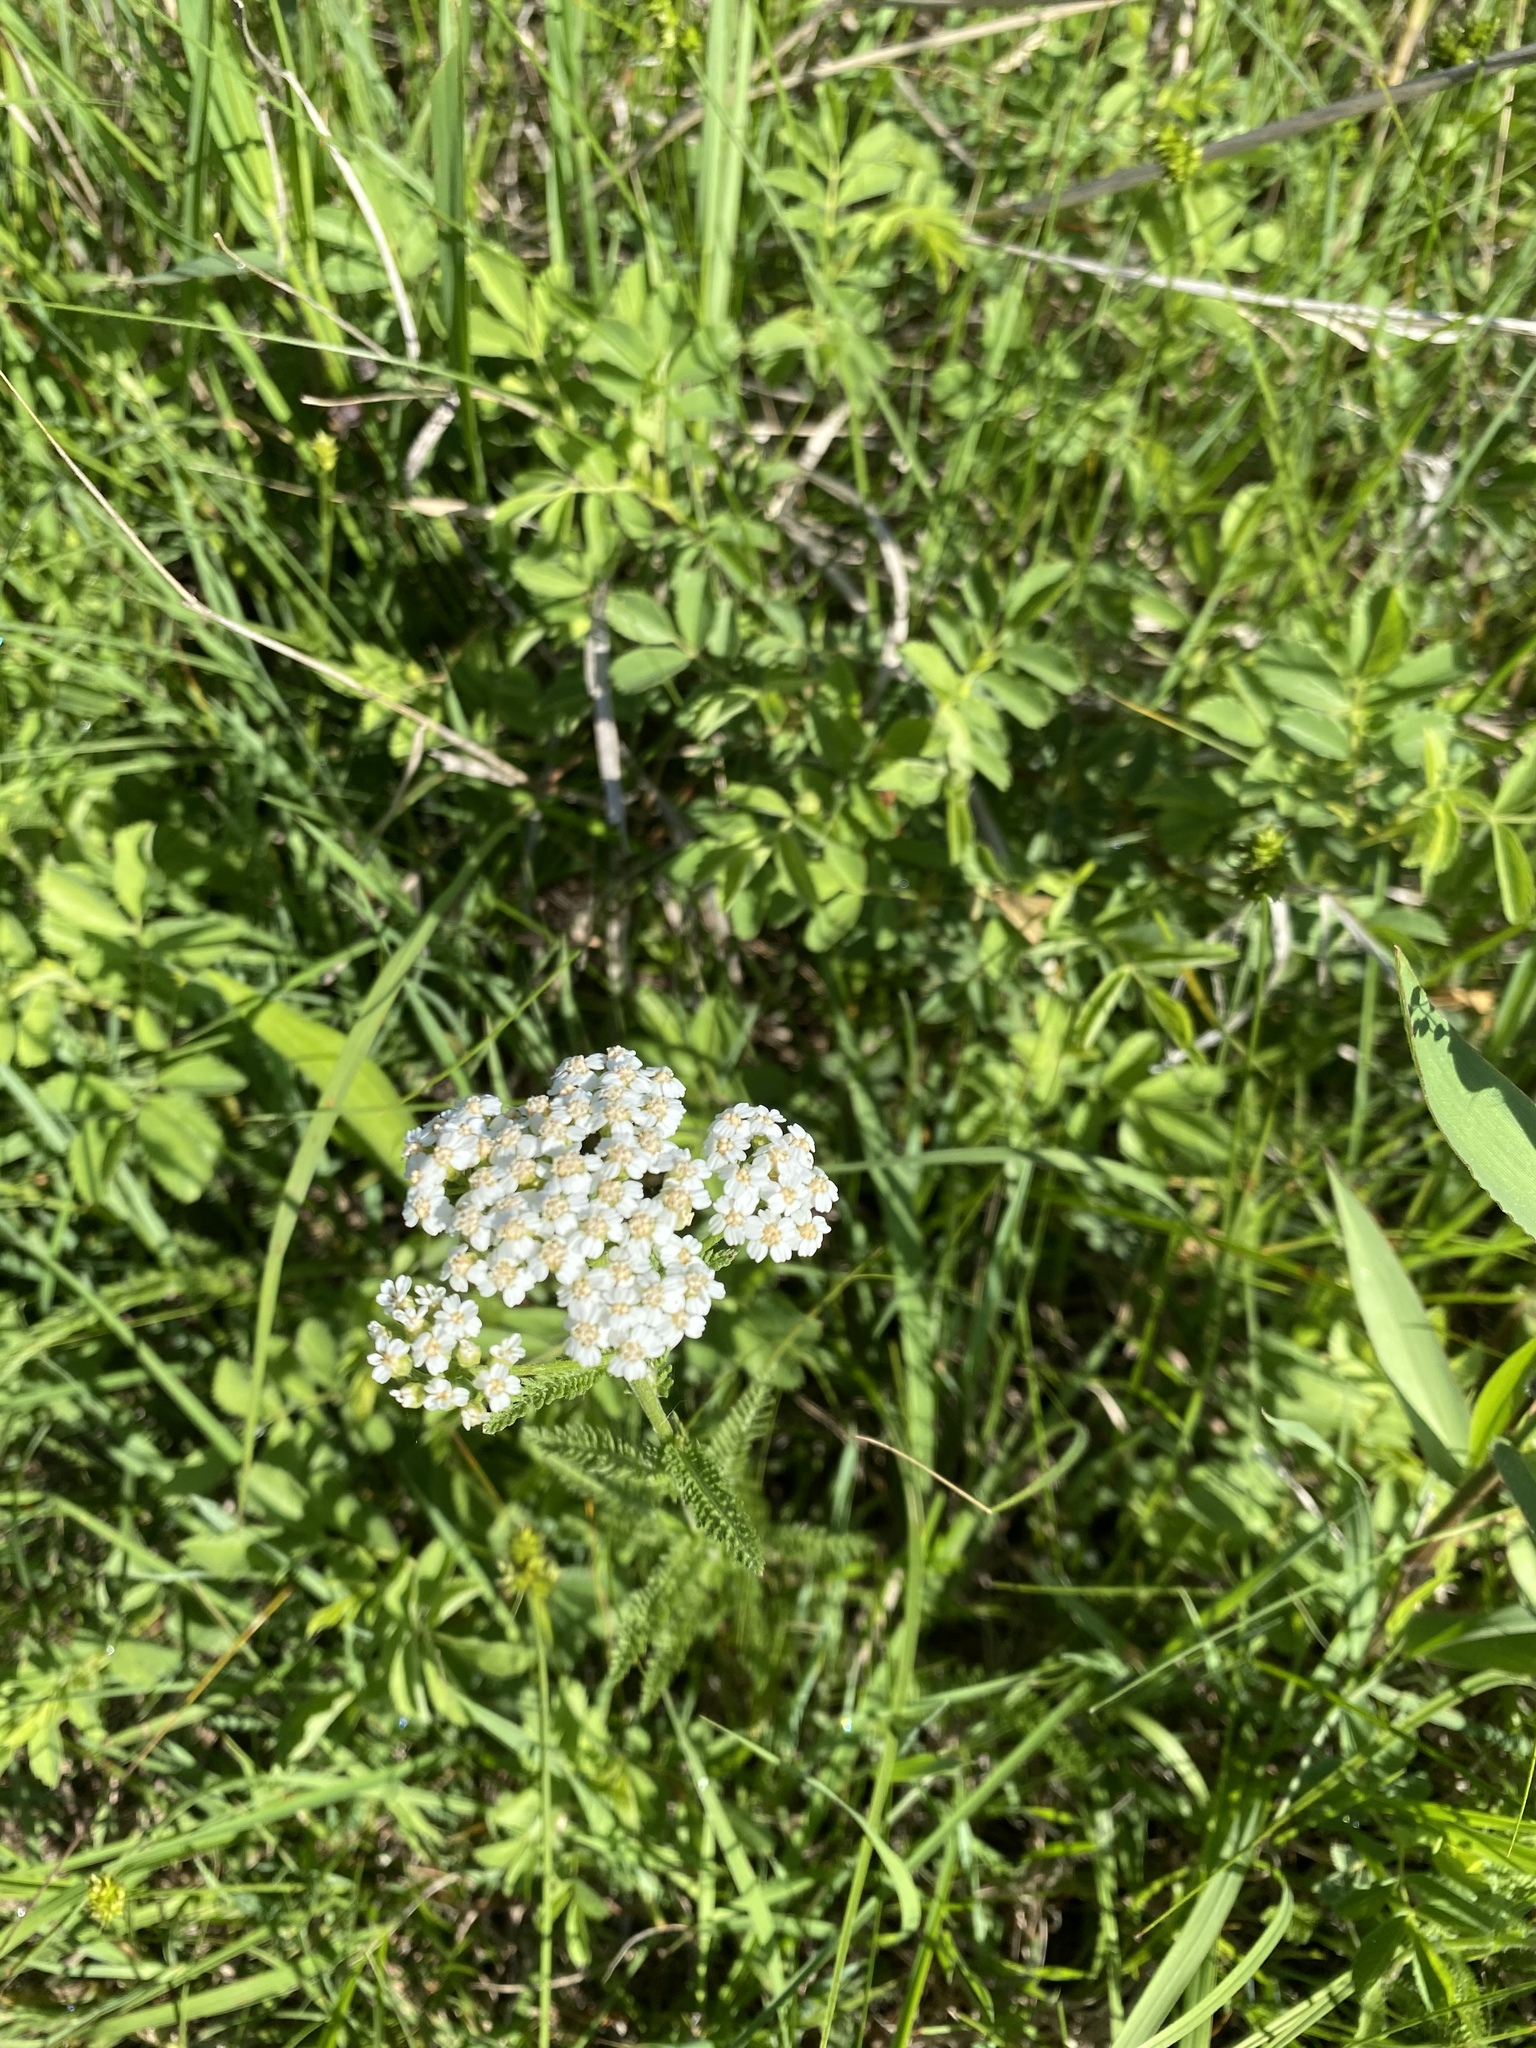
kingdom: Plantae
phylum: Tracheophyta
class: Magnoliopsida
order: Asterales
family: Asteraceae
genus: Achillea
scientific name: Achillea millefolium
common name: Yarrow
